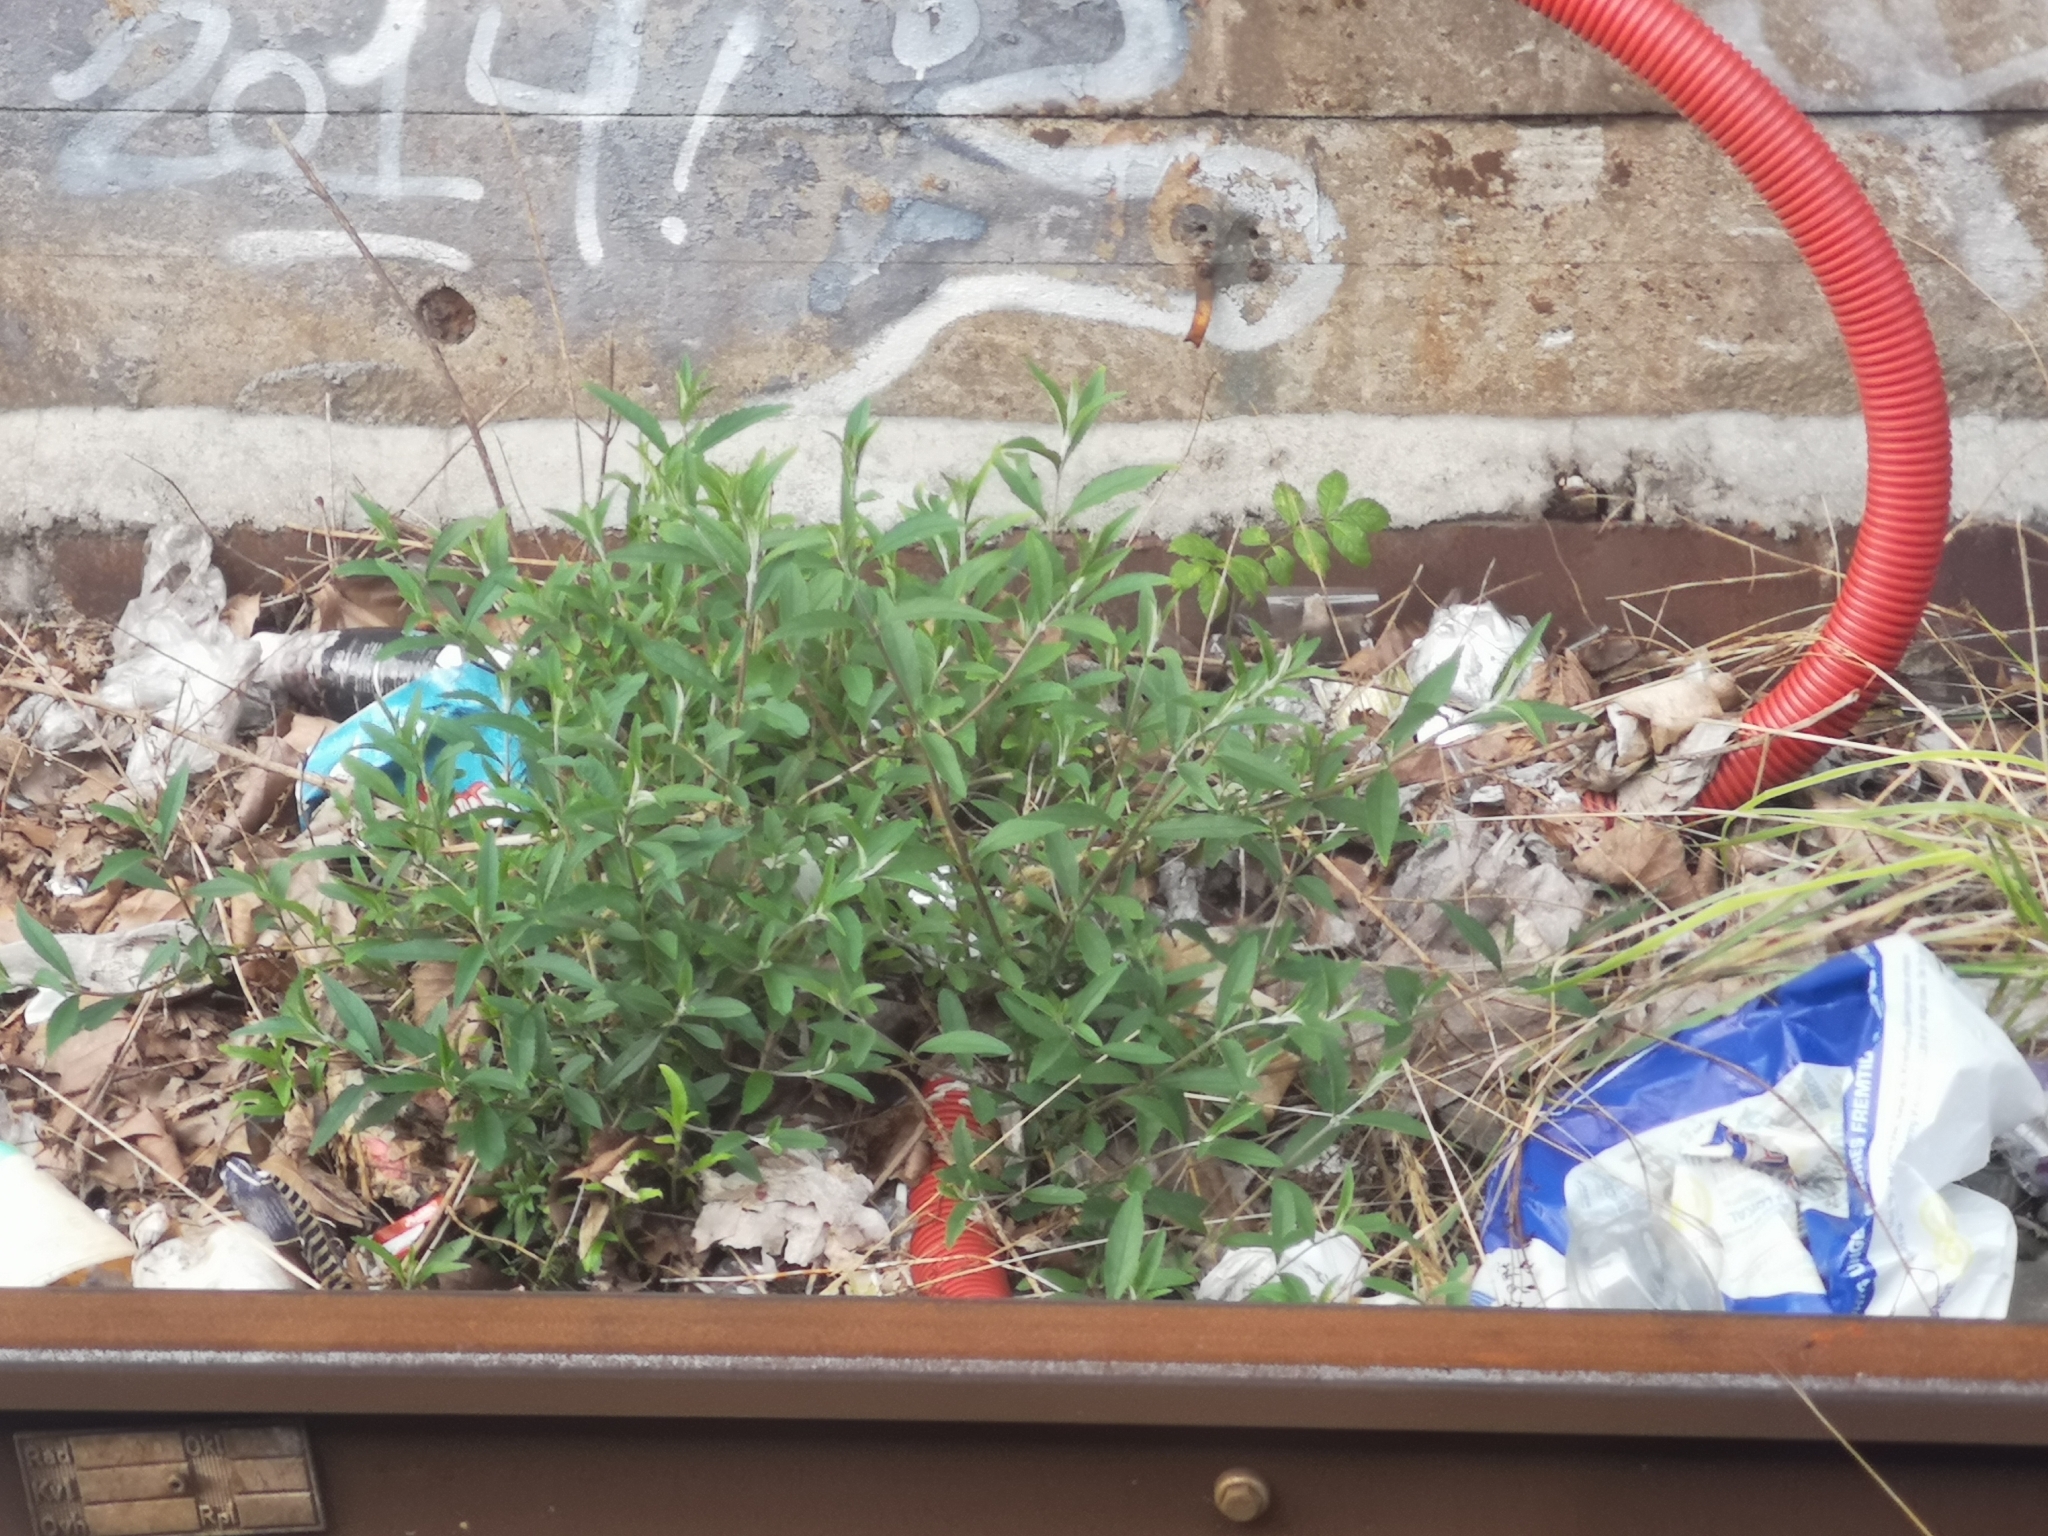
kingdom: Plantae
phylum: Tracheophyta
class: Magnoliopsida
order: Lamiales
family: Scrophulariaceae
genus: Buddleja
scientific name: Buddleja davidii
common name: Butterfly-bush
